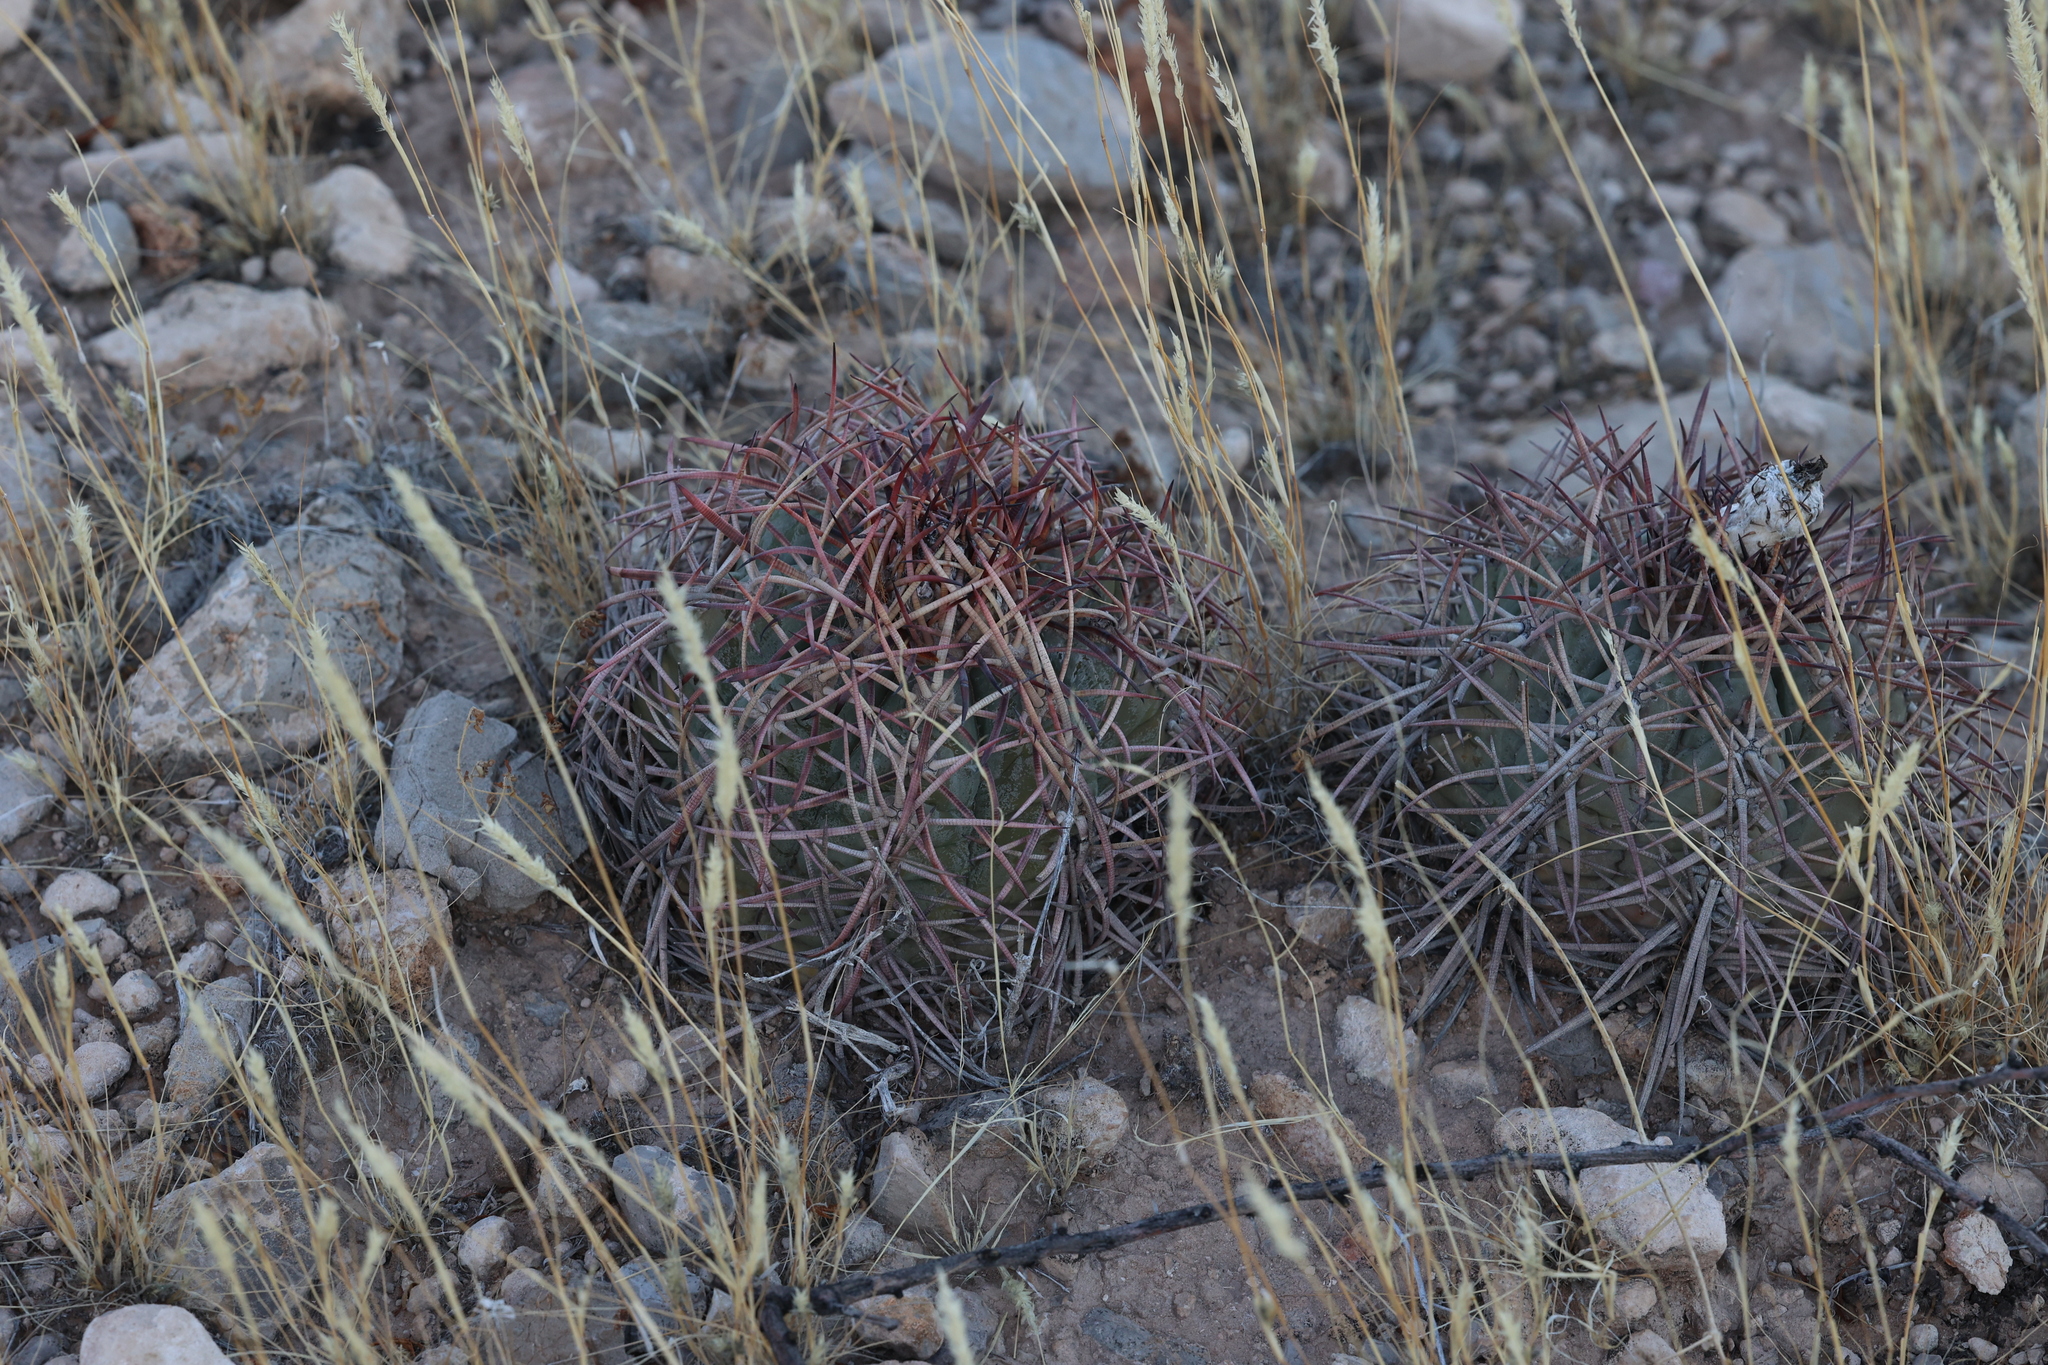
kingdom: Plantae
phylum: Tracheophyta
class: Magnoliopsida
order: Caryophyllales
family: Cactaceae
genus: Echinocactus
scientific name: Echinocactus horizonthalonius
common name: Devilshead
